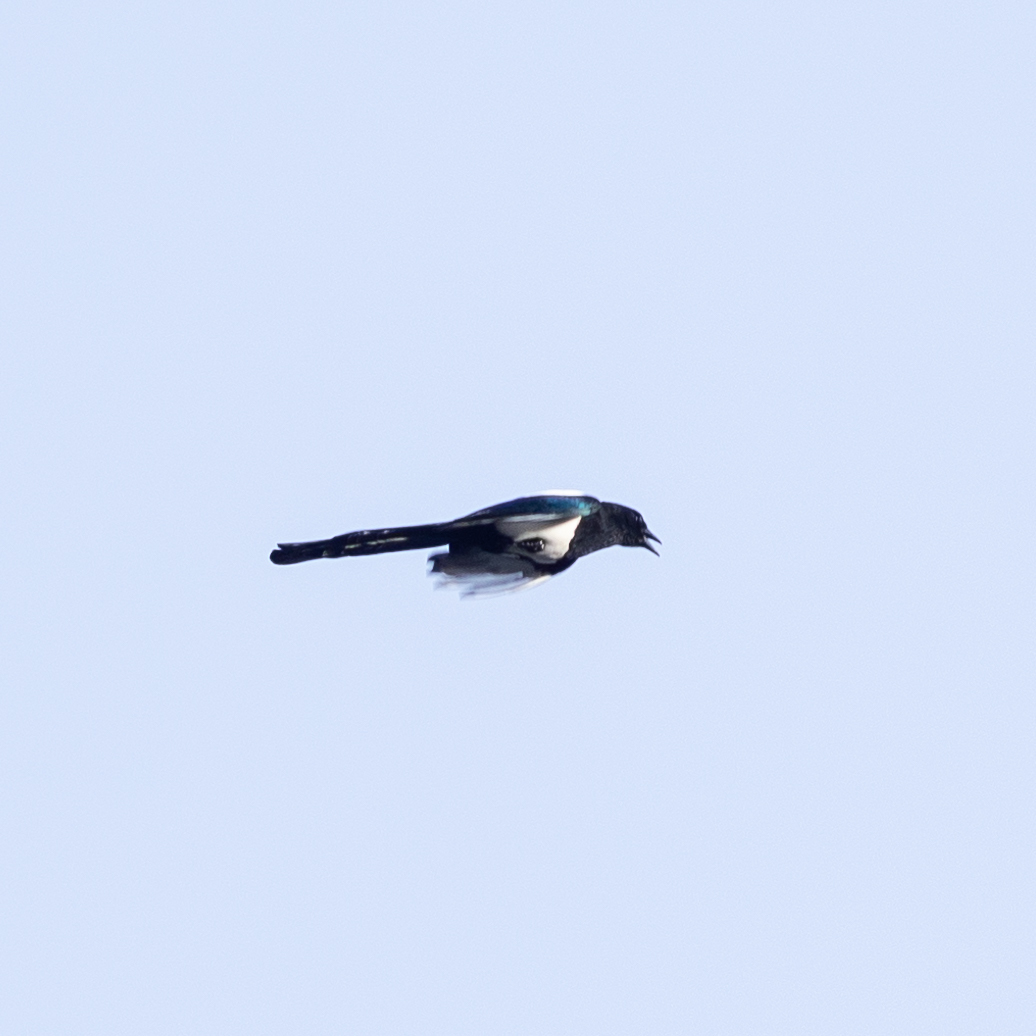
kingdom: Animalia
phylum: Chordata
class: Aves
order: Passeriformes
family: Corvidae
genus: Pica
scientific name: Pica pica
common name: Eurasian magpie
